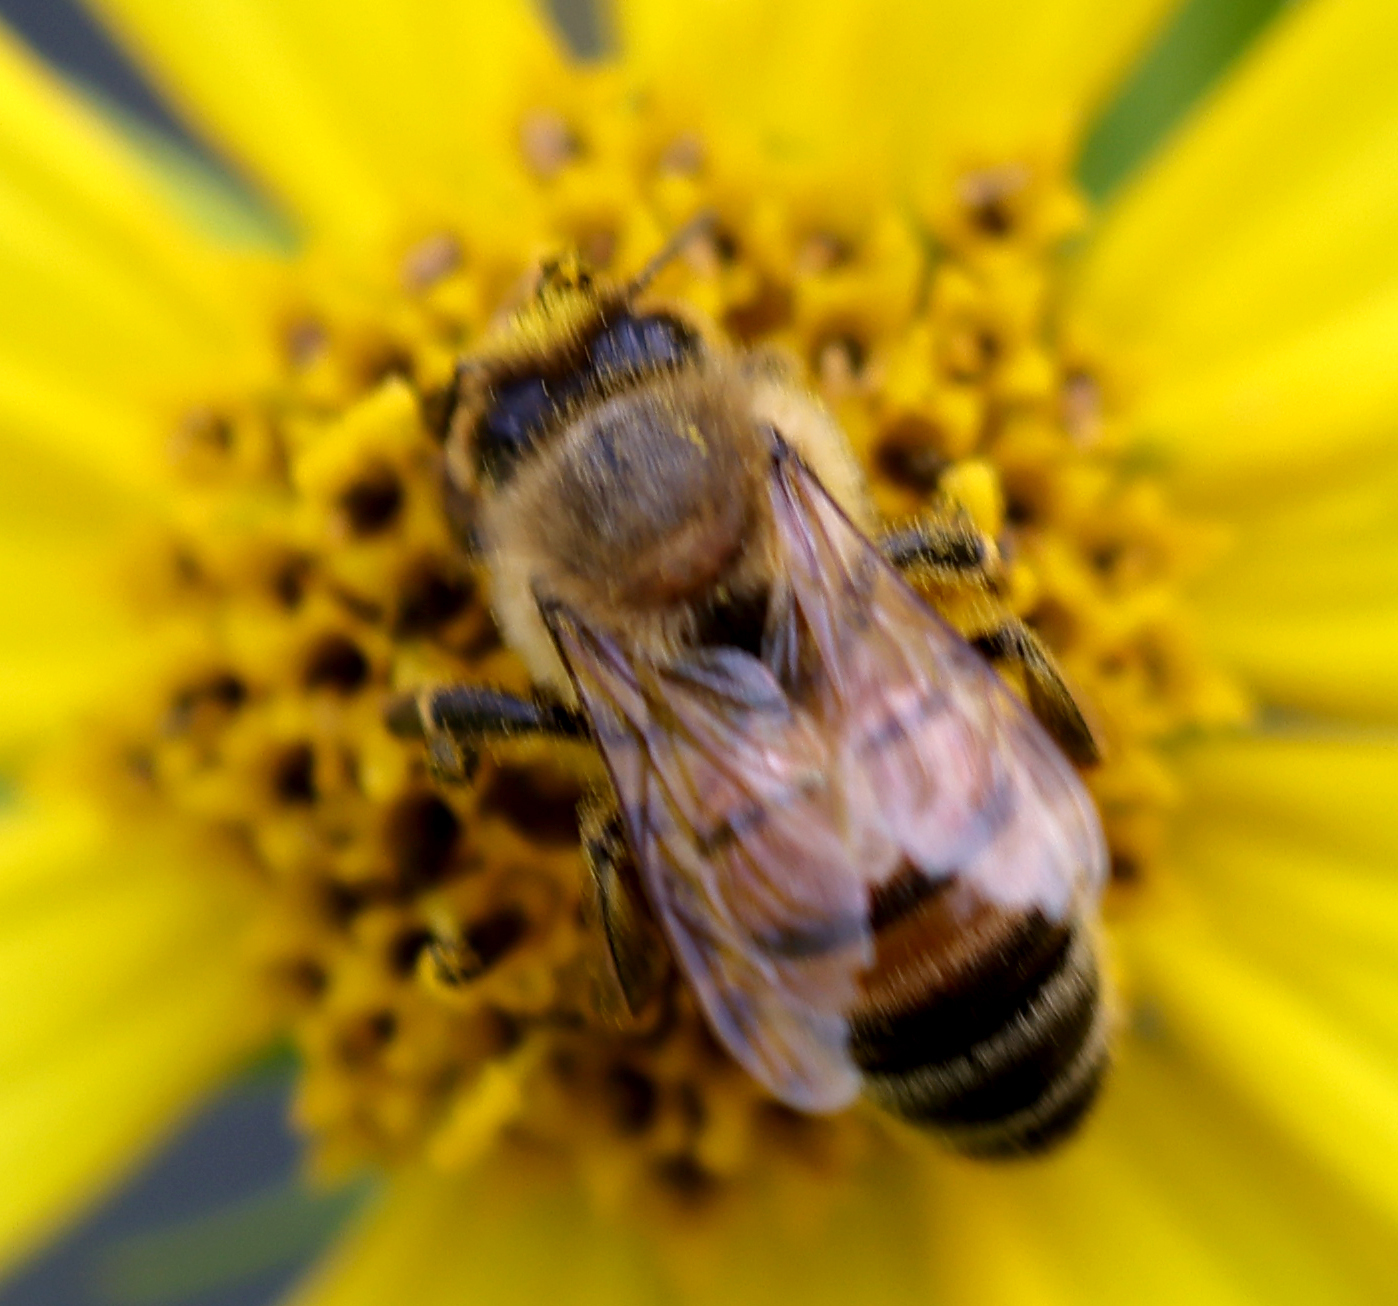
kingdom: Animalia
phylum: Arthropoda
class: Insecta
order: Hymenoptera
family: Apidae
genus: Apis
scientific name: Apis mellifera
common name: Honey bee
